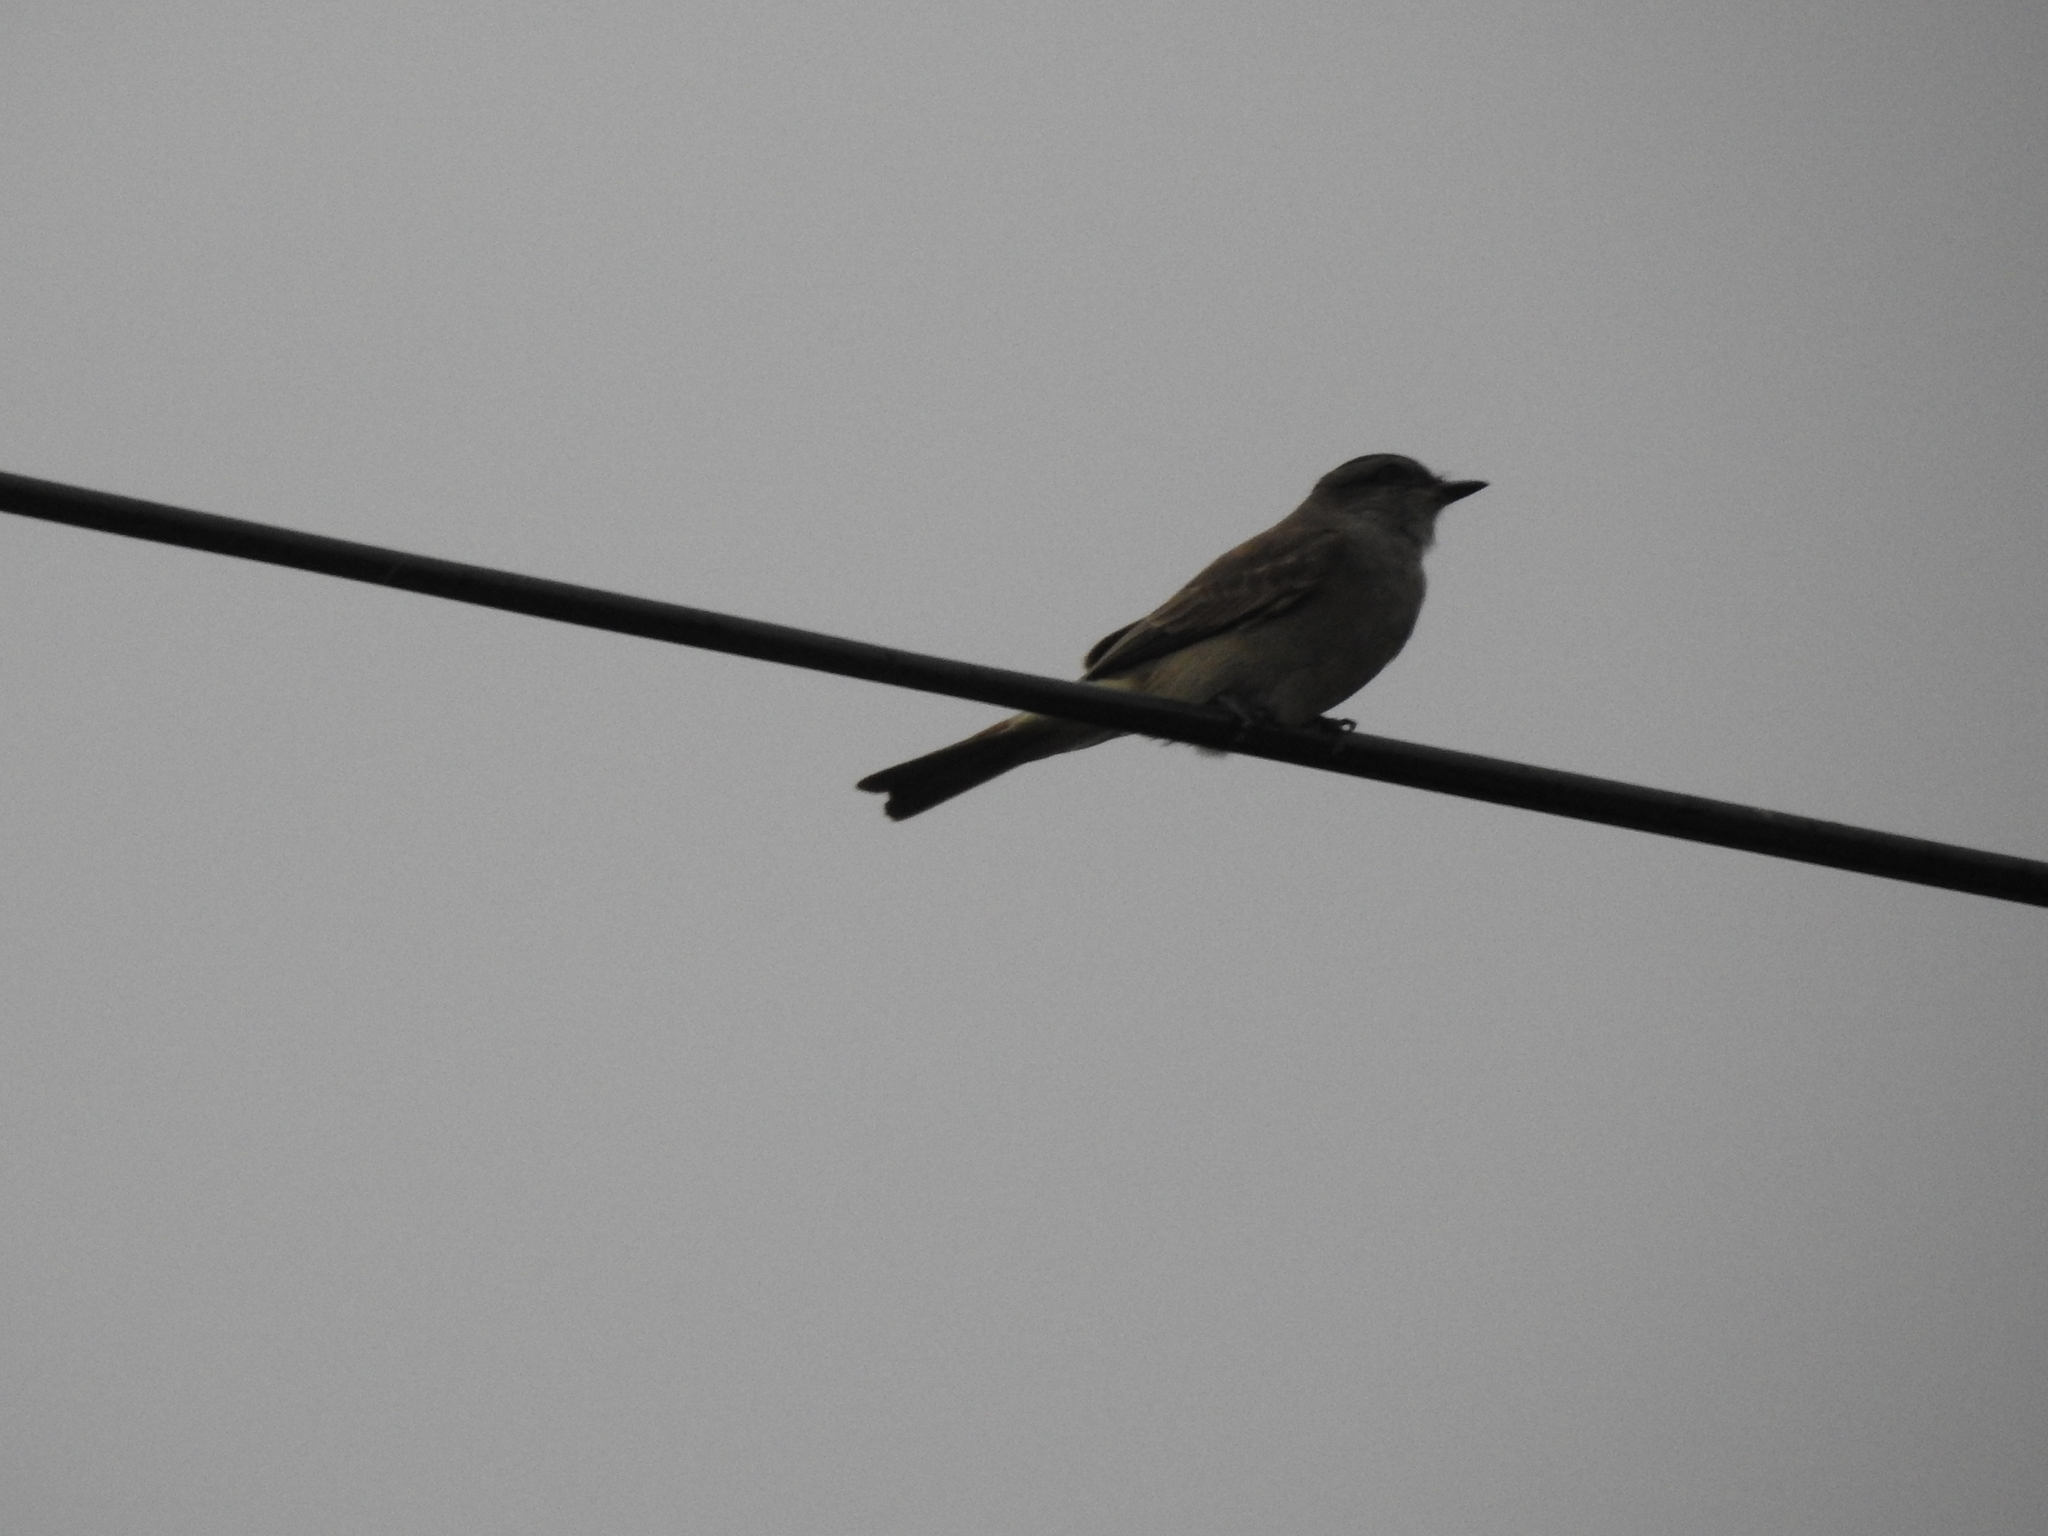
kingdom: Animalia
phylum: Chordata
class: Aves
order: Passeriformes
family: Tyrannidae
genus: Empidonomus
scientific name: Empidonomus aurantioatrocristatus
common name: Crowned slaty flycatcher
